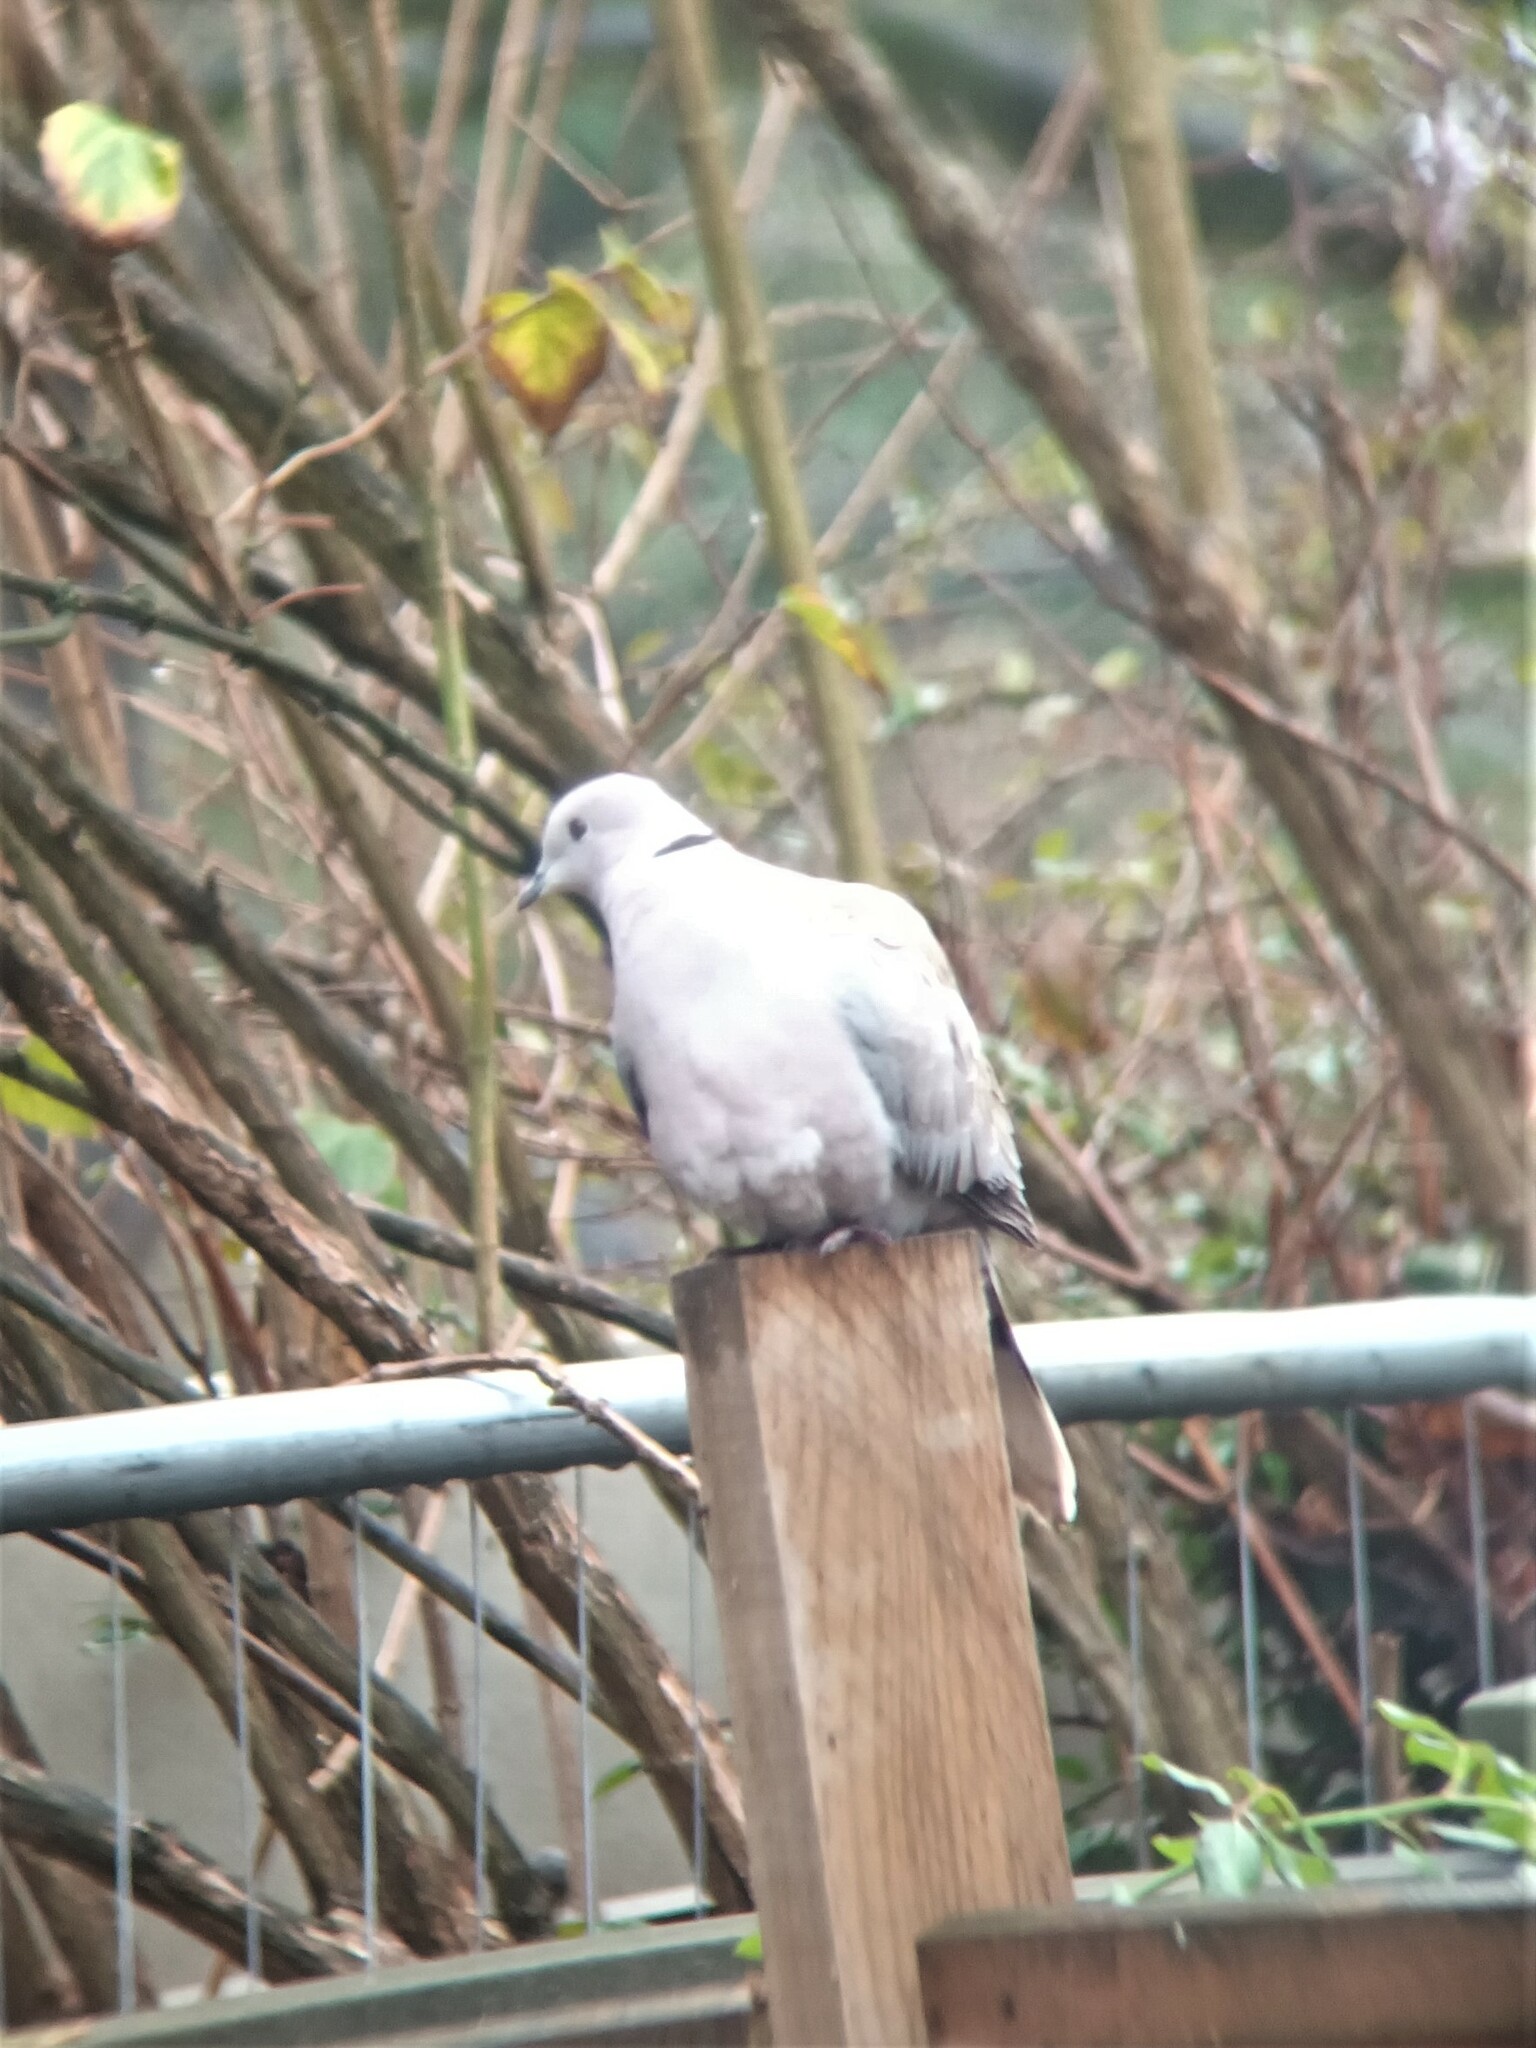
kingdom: Animalia
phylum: Chordata
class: Aves
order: Columbiformes
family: Columbidae
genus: Streptopelia
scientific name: Streptopelia decaocto
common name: Eurasian collared dove
